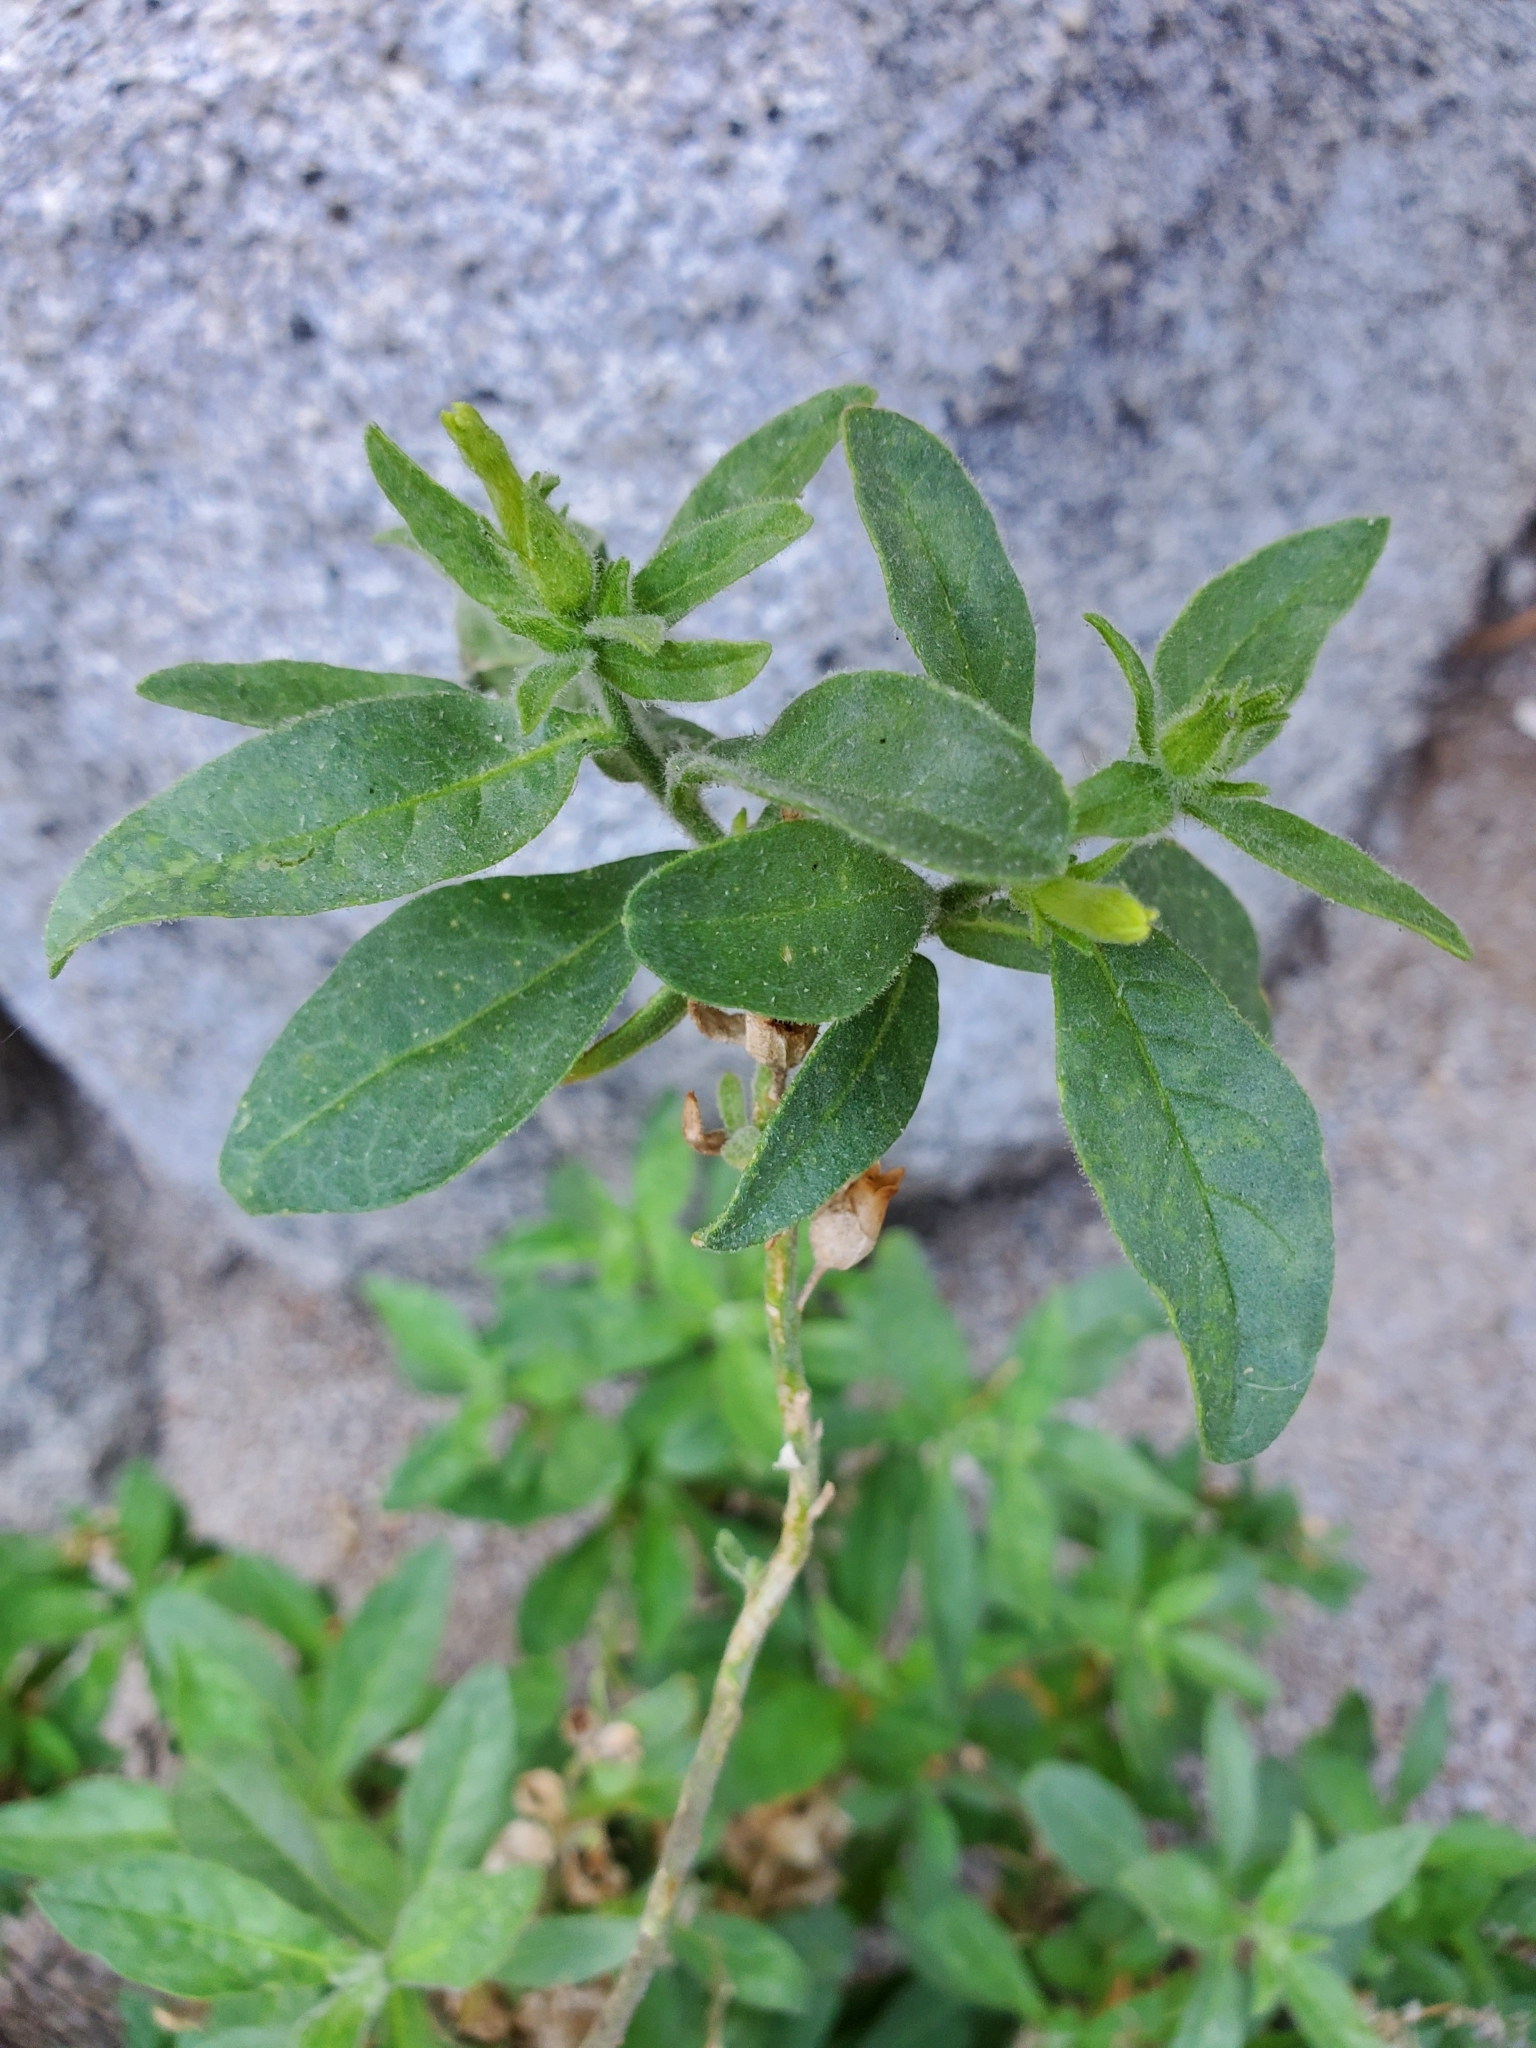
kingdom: Plantae
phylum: Tracheophyta
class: Magnoliopsida
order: Solanales
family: Solanaceae
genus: Nicotiana
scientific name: Nicotiana obtusifolia
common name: Desert tobacco
